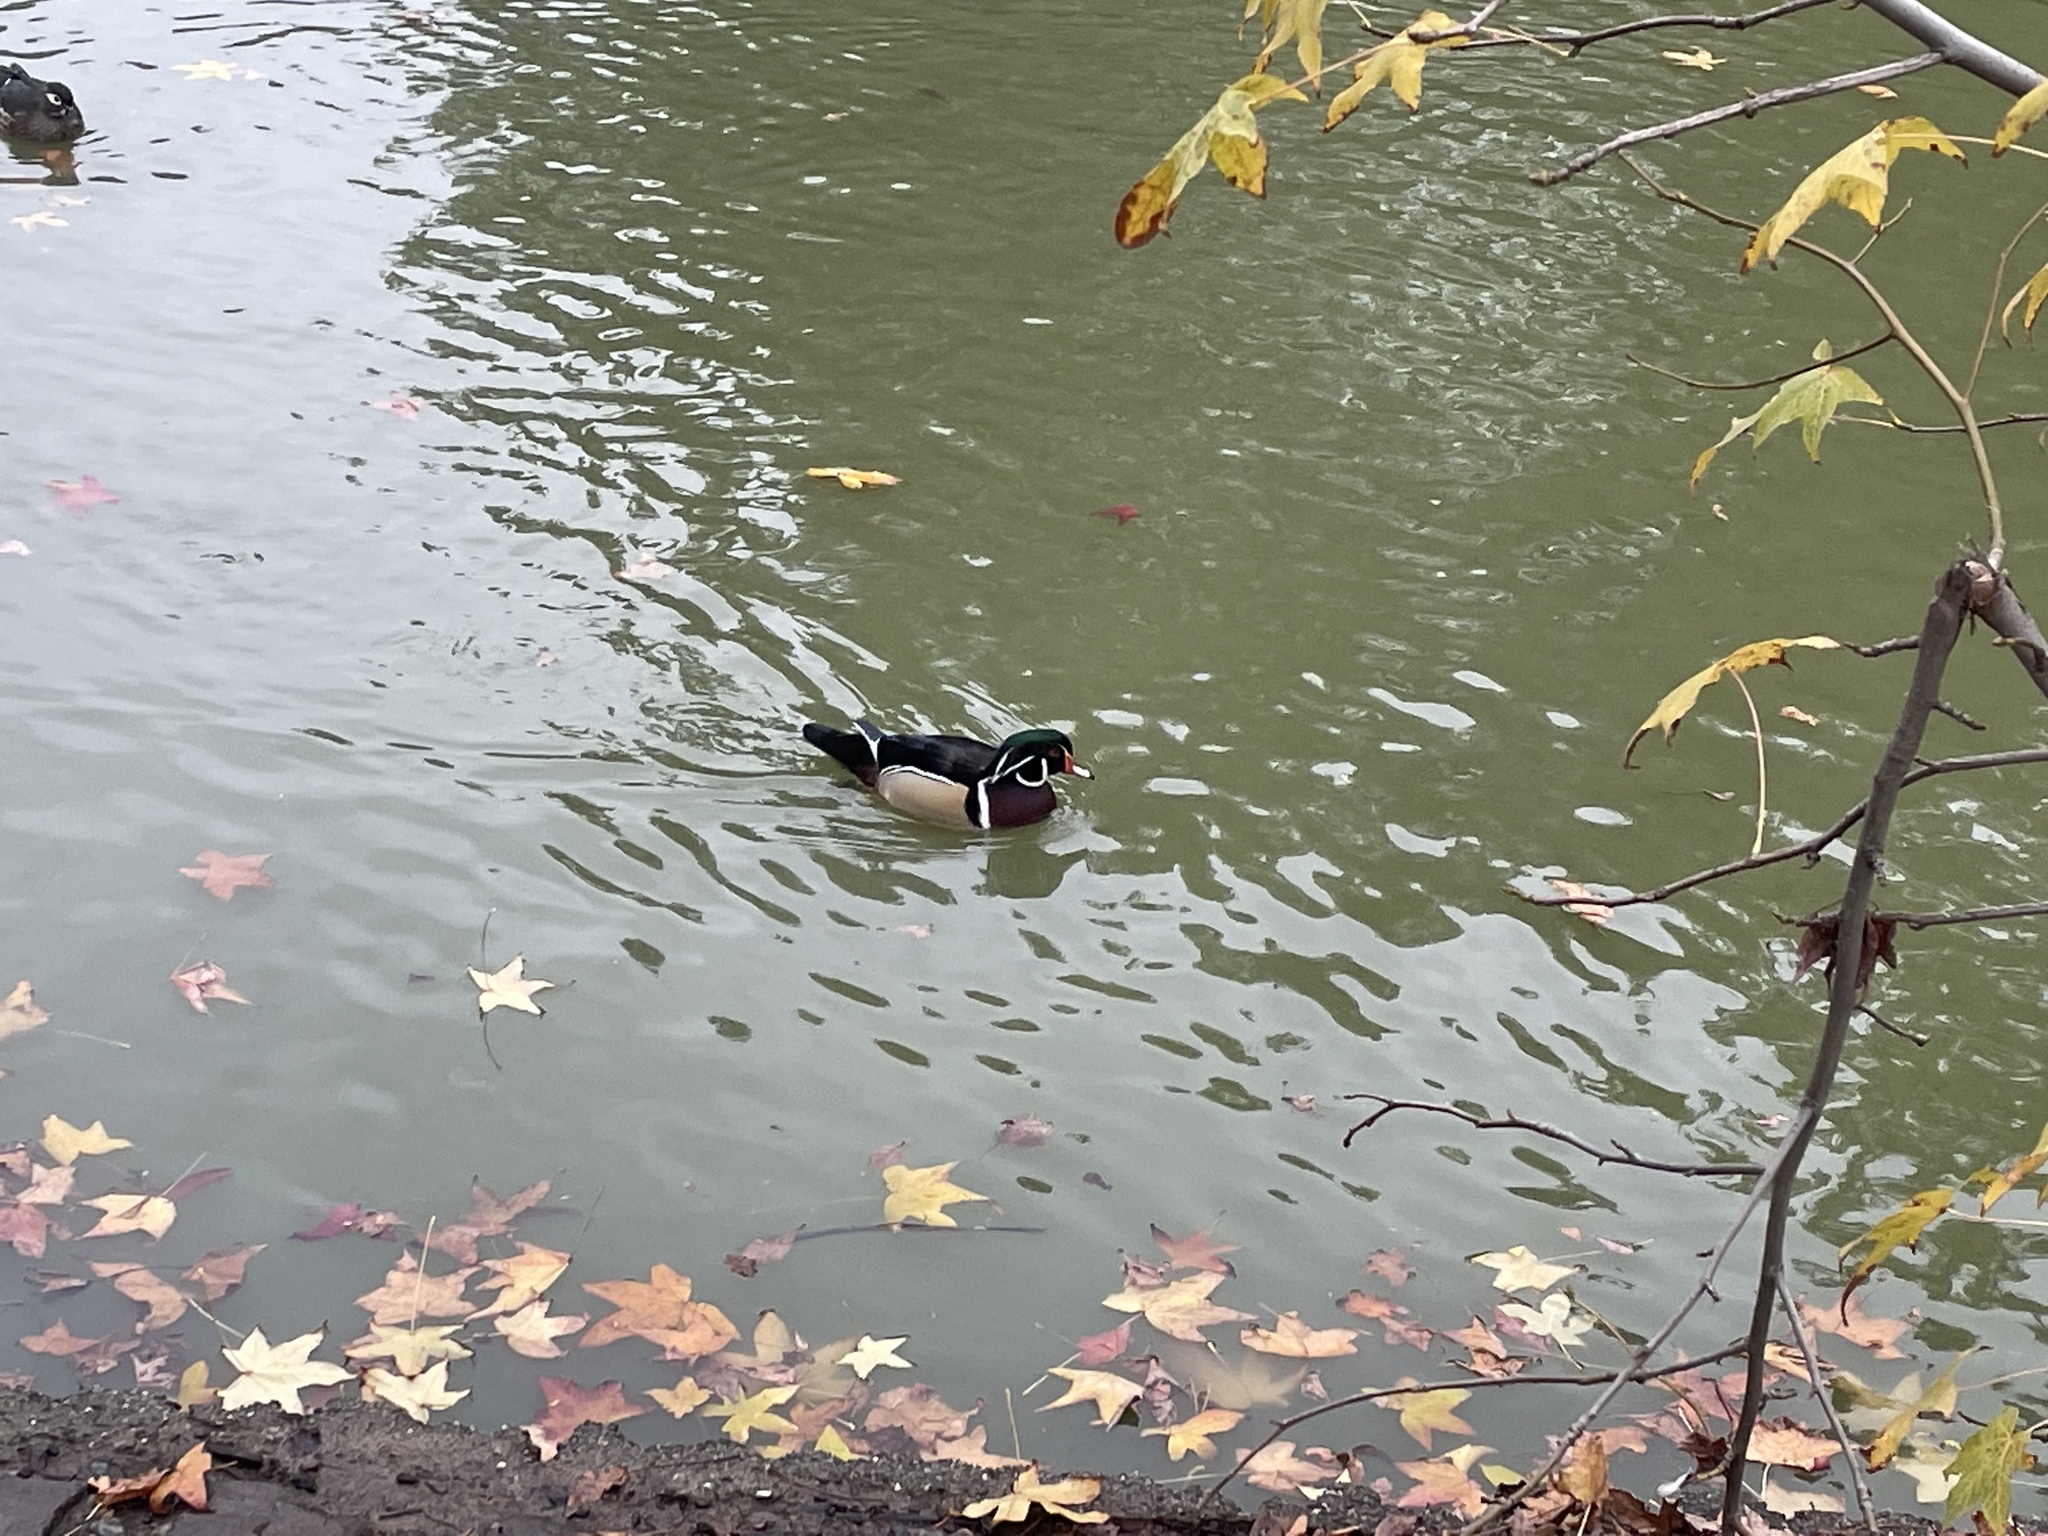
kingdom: Animalia
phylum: Chordata
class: Aves
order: Anseriformes
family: Anatidae
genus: Aix
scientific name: Aix sponsa
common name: Wood duck
